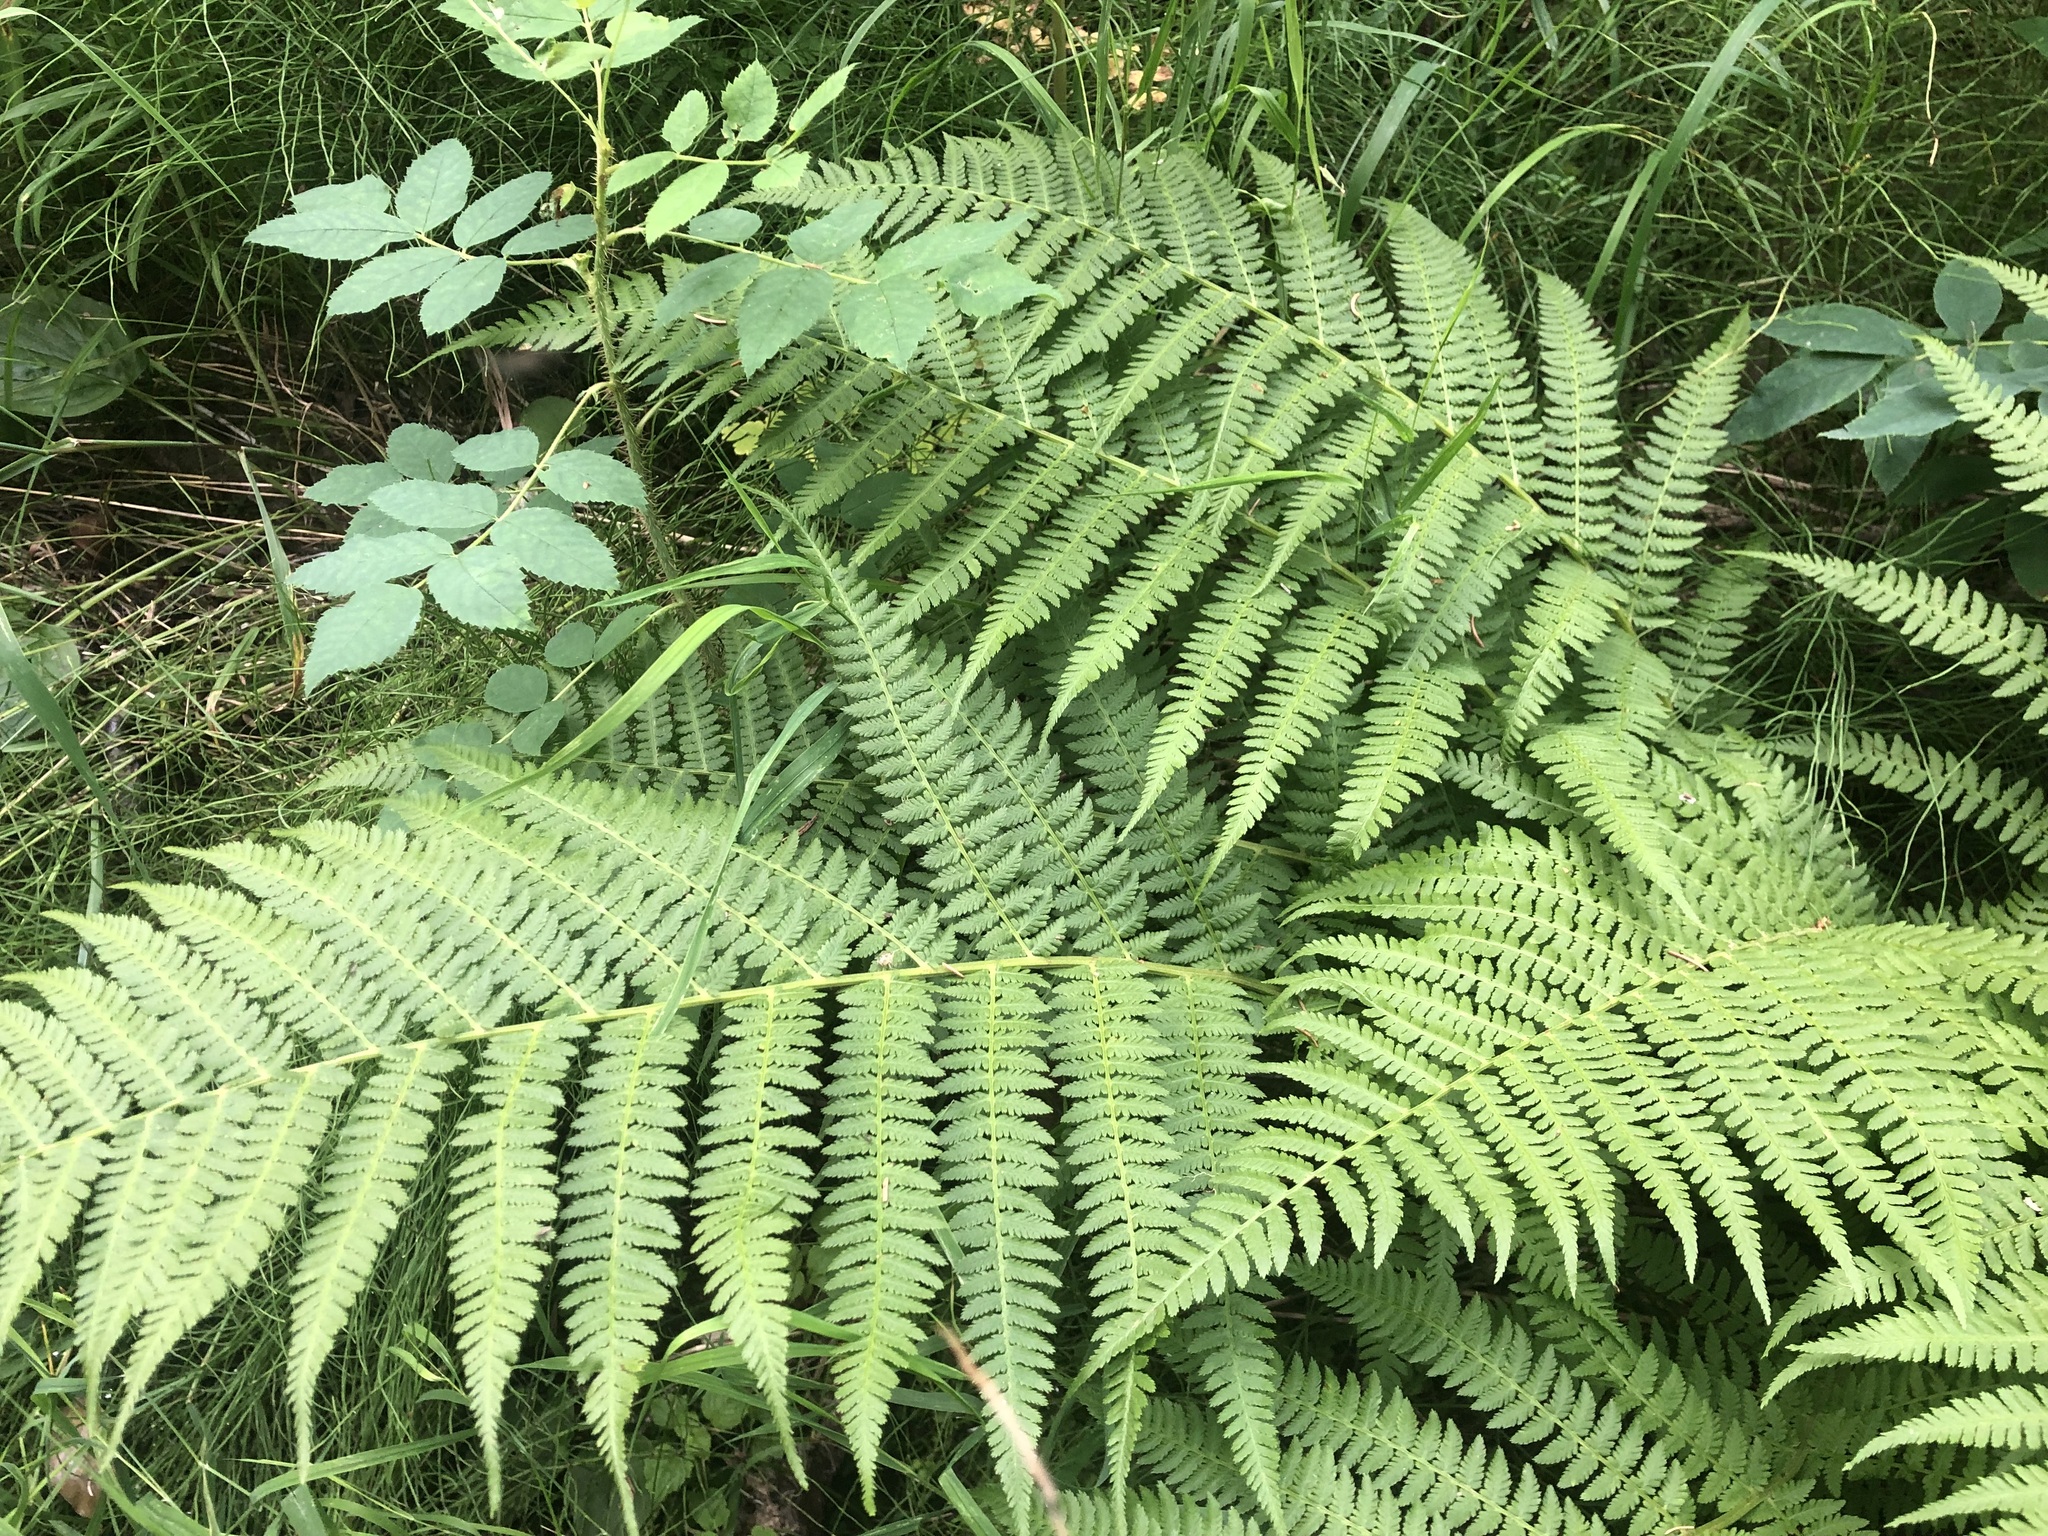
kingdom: Plantae
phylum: Tracheophyta
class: Polypodiopsida
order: Polypodiales
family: Athyriaceae
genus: Athyrium
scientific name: Athyrium filix-femina
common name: Lady fern
